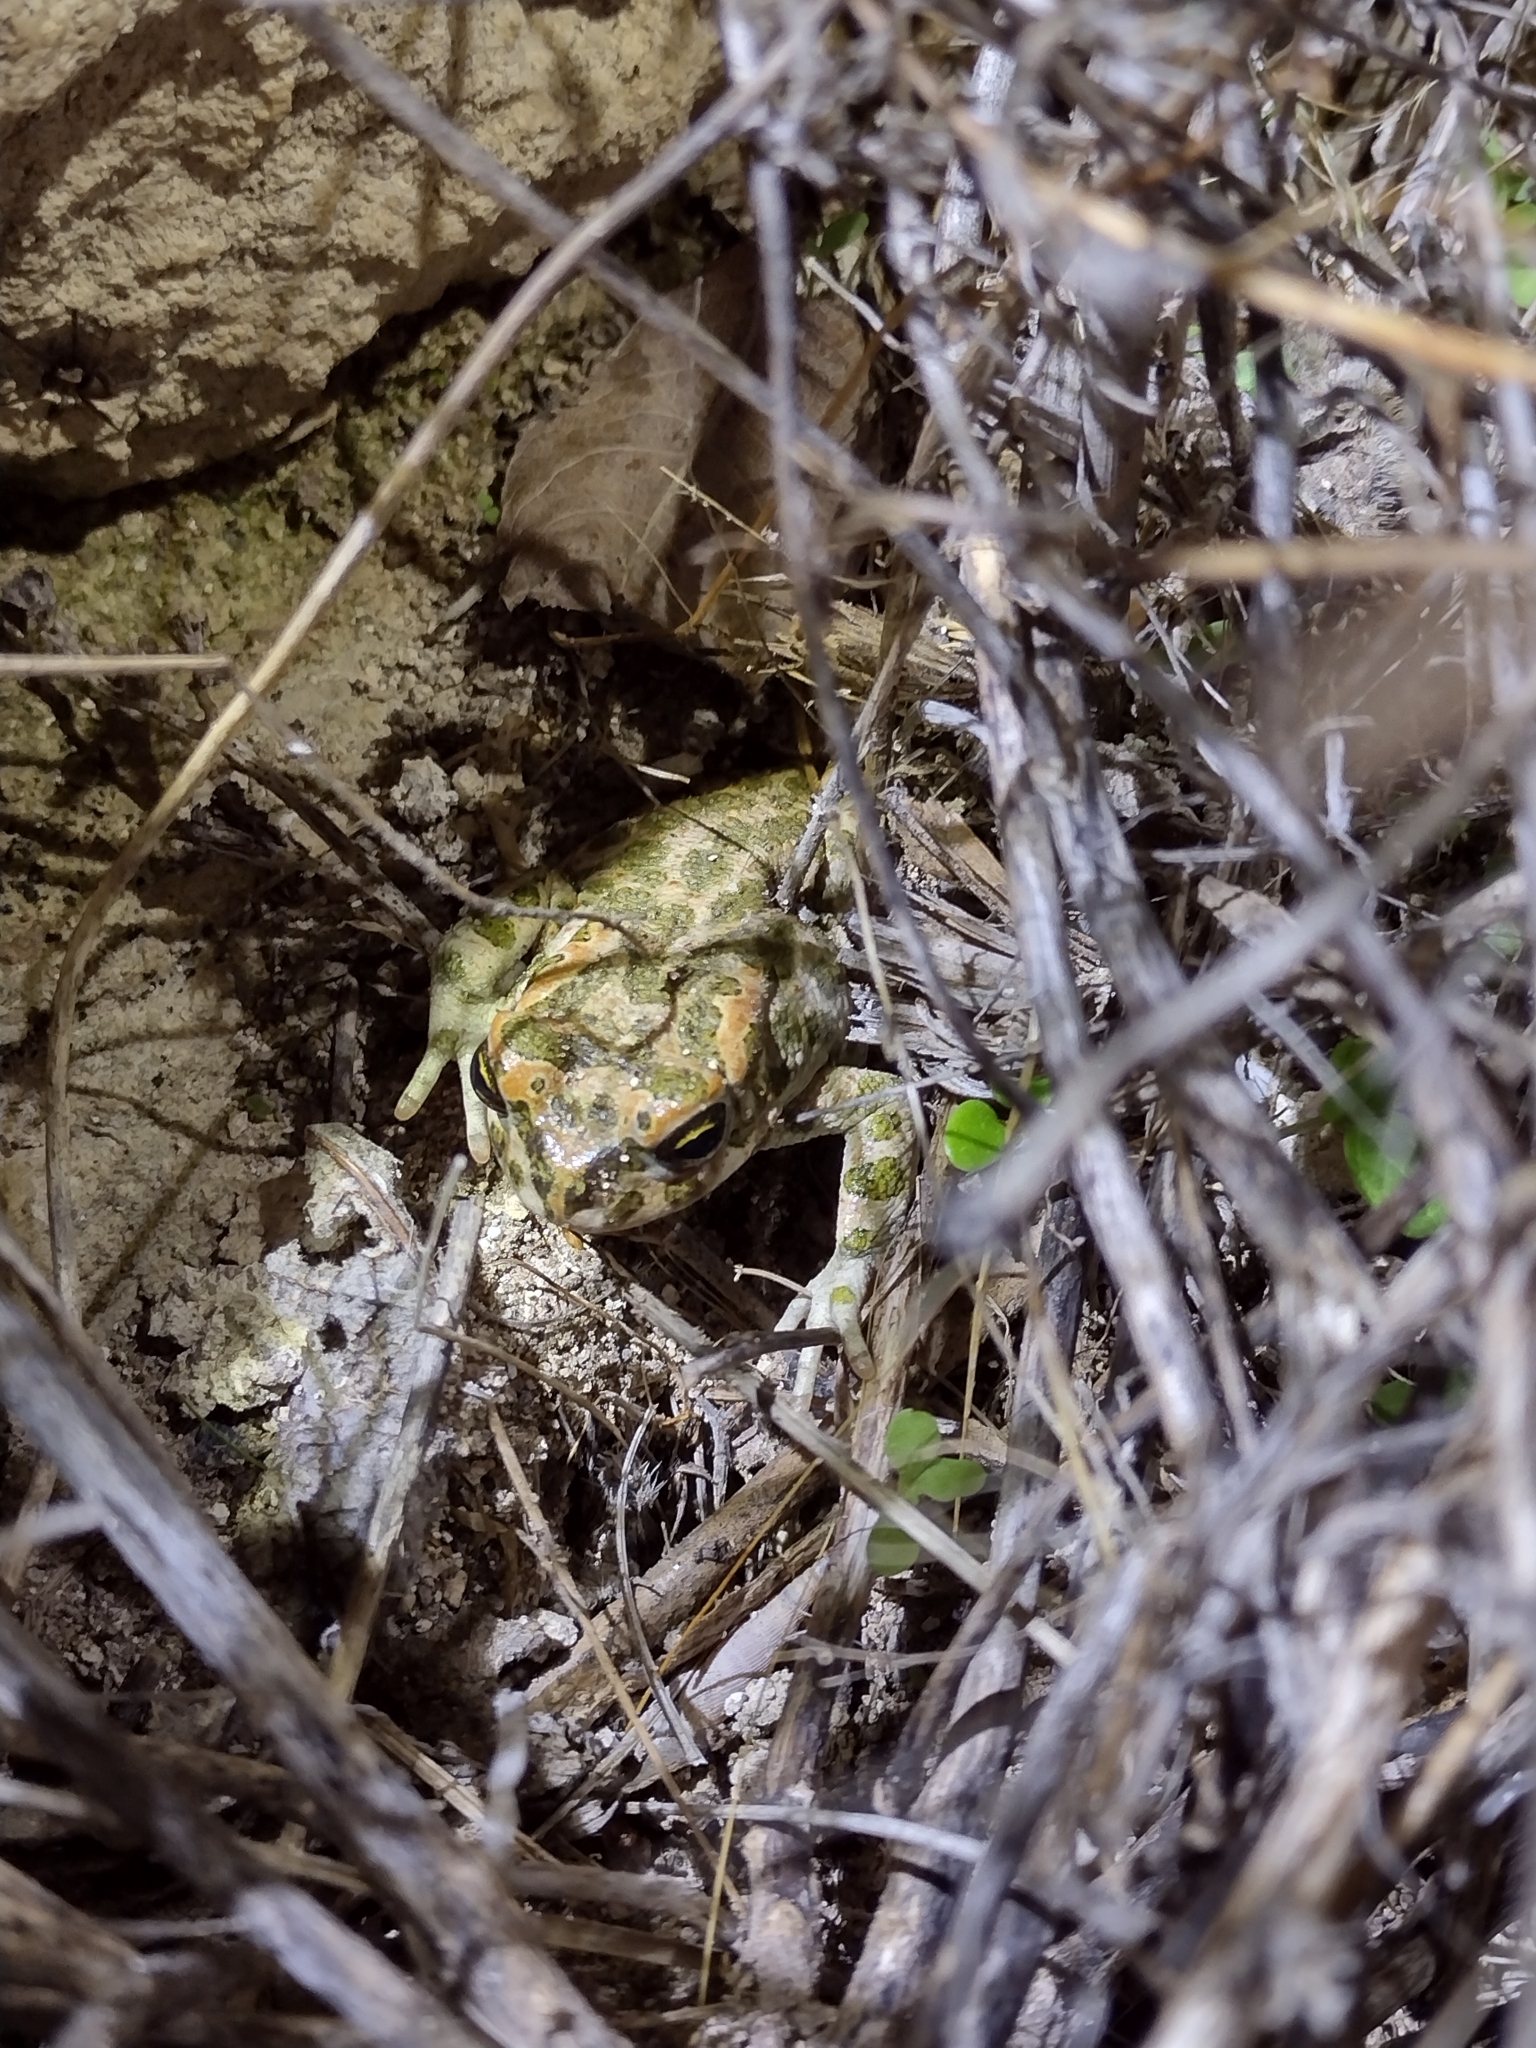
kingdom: Animalia
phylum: Chordata
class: Amphibia
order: Anura
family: Bufonidae
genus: Bufotes
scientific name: Bufotes viridis
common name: European green toad
